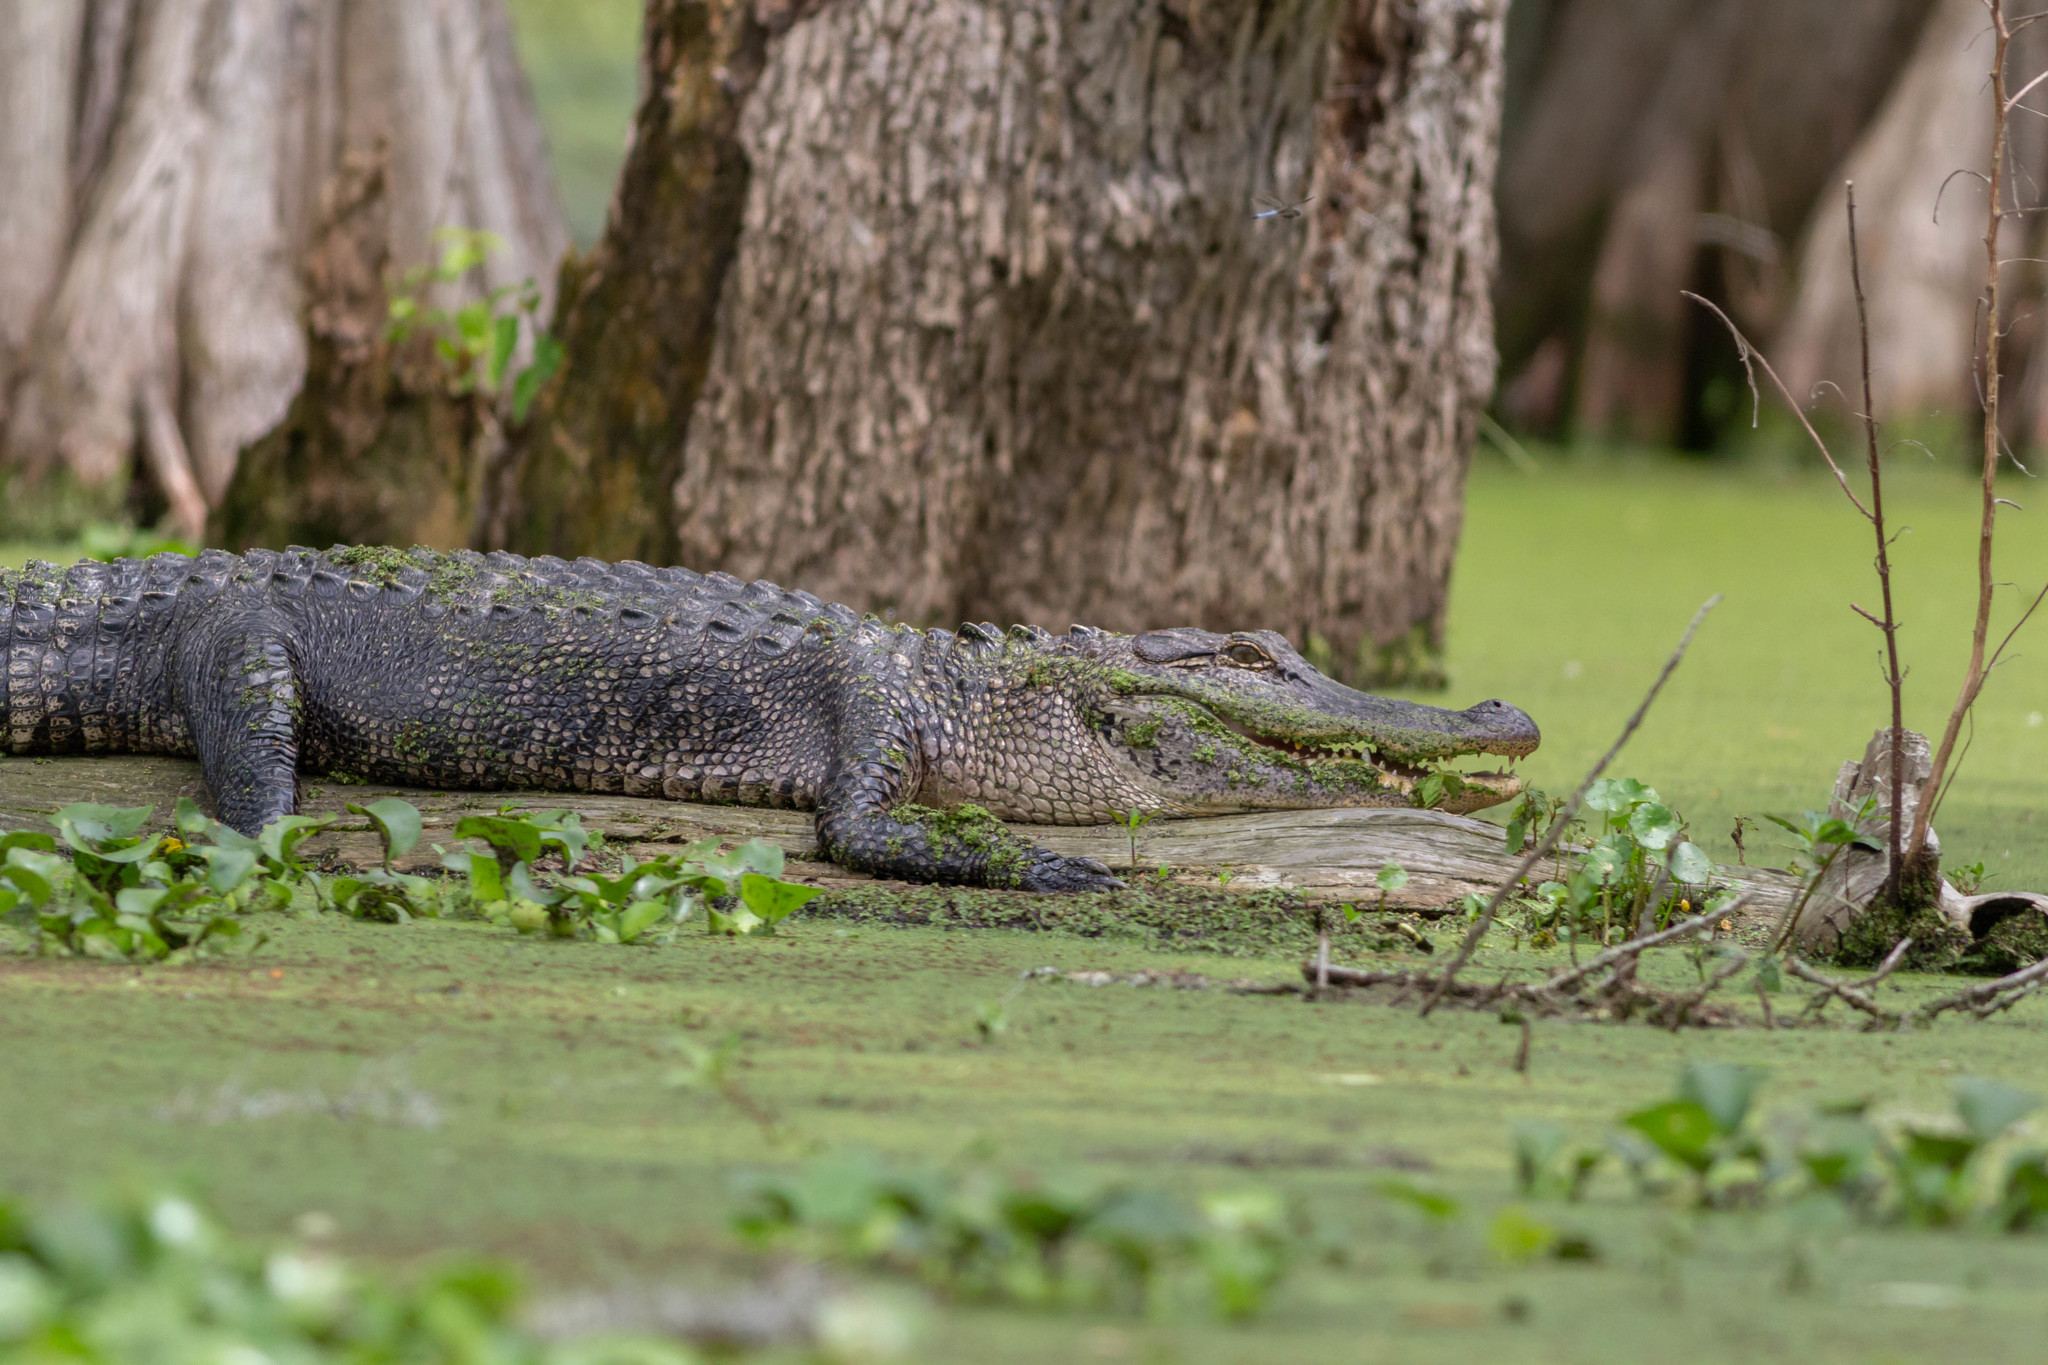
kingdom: Animalia
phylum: Chordata
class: Crocodylia
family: Alligatoridae
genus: Alligator
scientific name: Alligator mississippiensis
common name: American alligator
